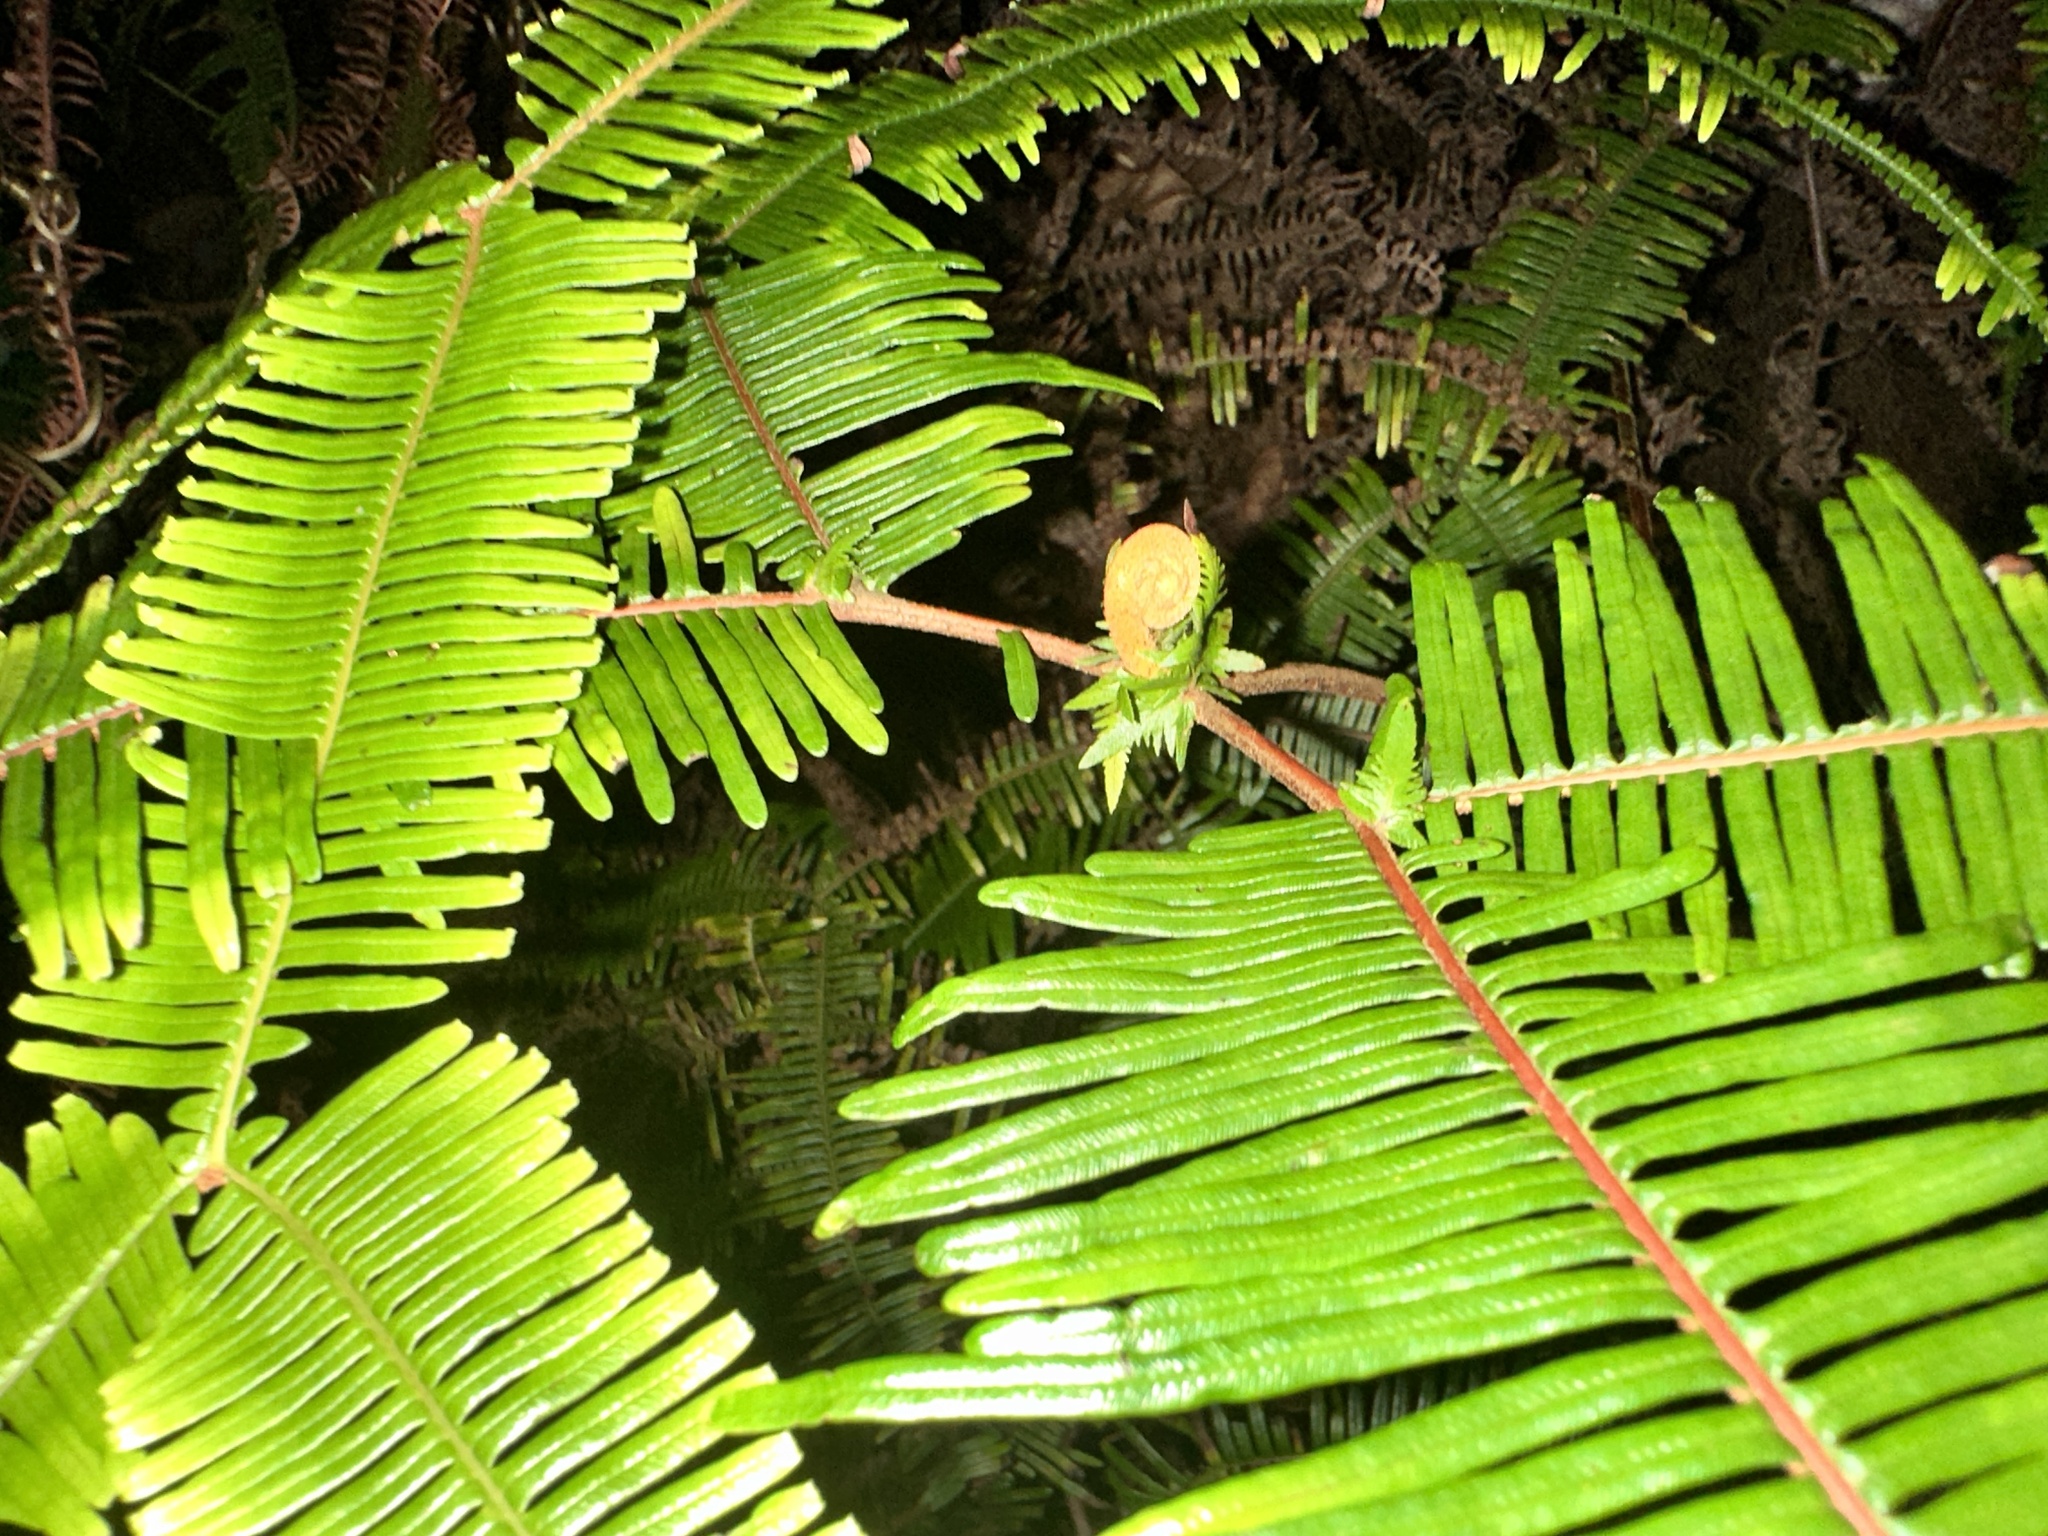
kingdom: Plantae
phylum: Tracheophyta
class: Polypodiopsida
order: Gleicheniales
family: Gleicheniaceae
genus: Sticherus
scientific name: Sticherus truncatus
